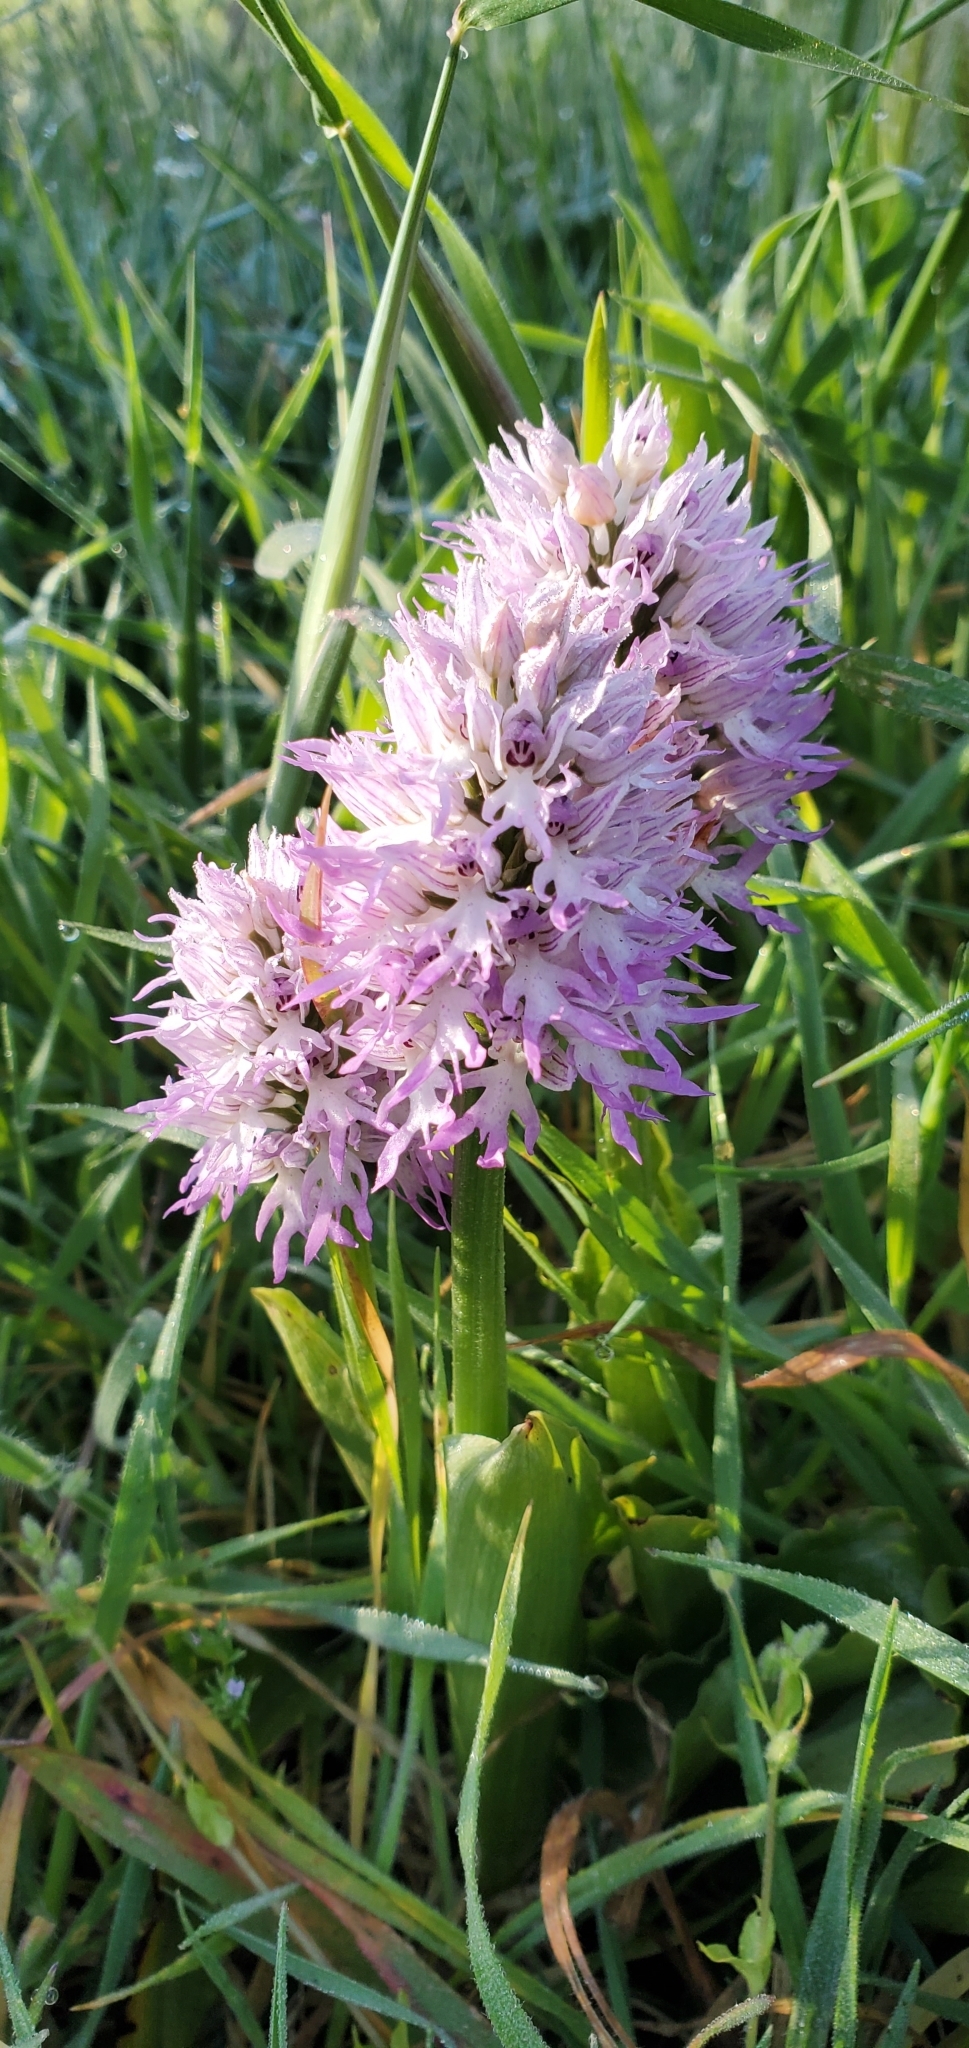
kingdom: Plantae
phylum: Tracheophyta
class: Liliopsida
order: Asparagales
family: Orchidaceae
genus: Orchis
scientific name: Orchis italica
